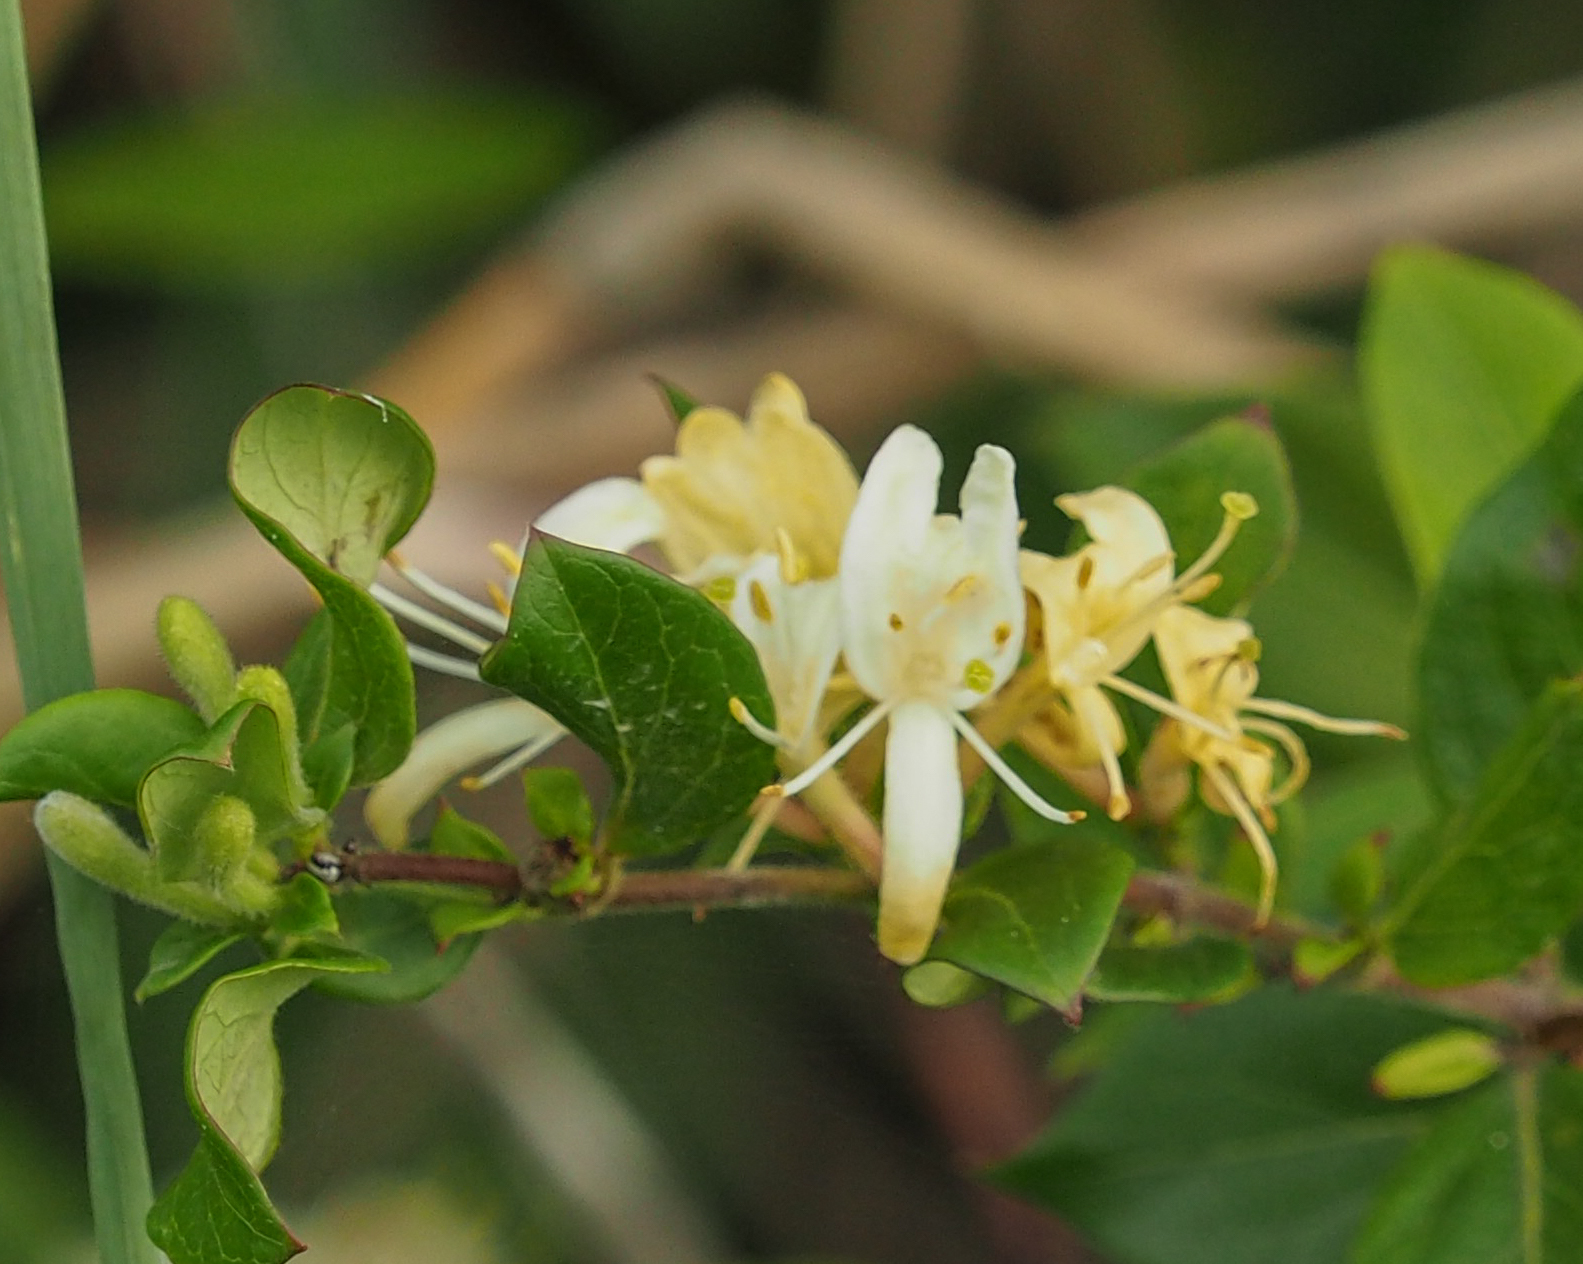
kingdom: Plantae
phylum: Tracheophyta
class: Magnoliopsida
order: Dipsacales
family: Caprifoliaceae
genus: Lonicera
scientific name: Lonicera japonica
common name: Japanese honeysuckle
